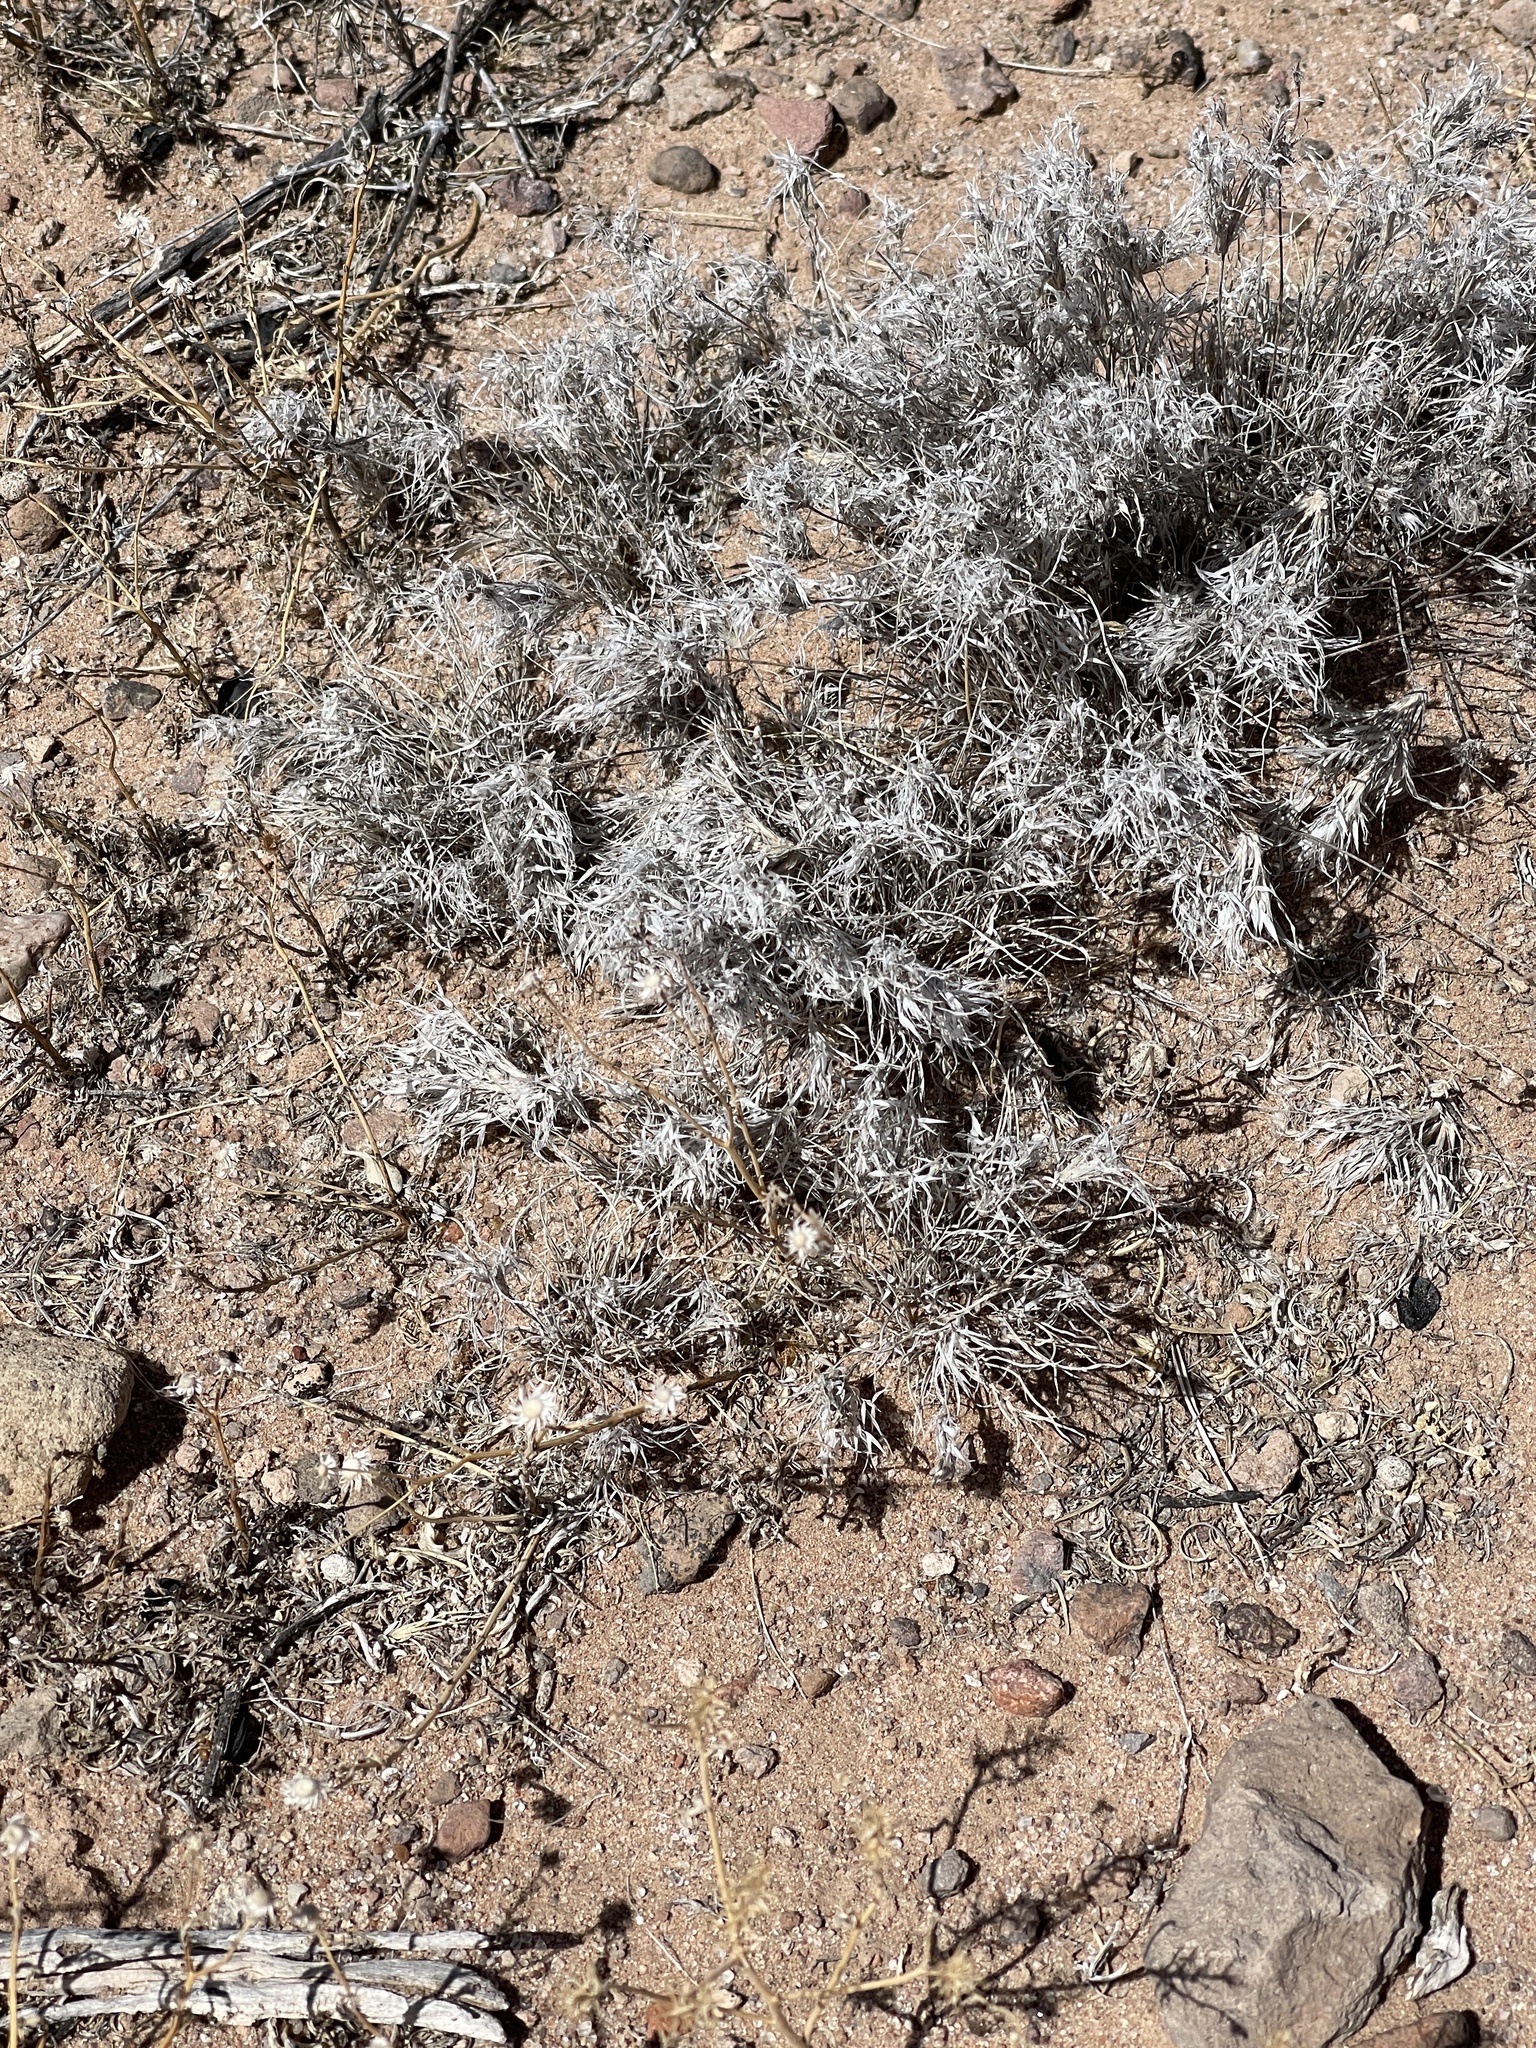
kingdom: Plantae
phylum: Tracheophyta
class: Liliopsida
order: Poales
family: Poaceae
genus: Dasyochloa
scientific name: Dasyochloa pulchella
